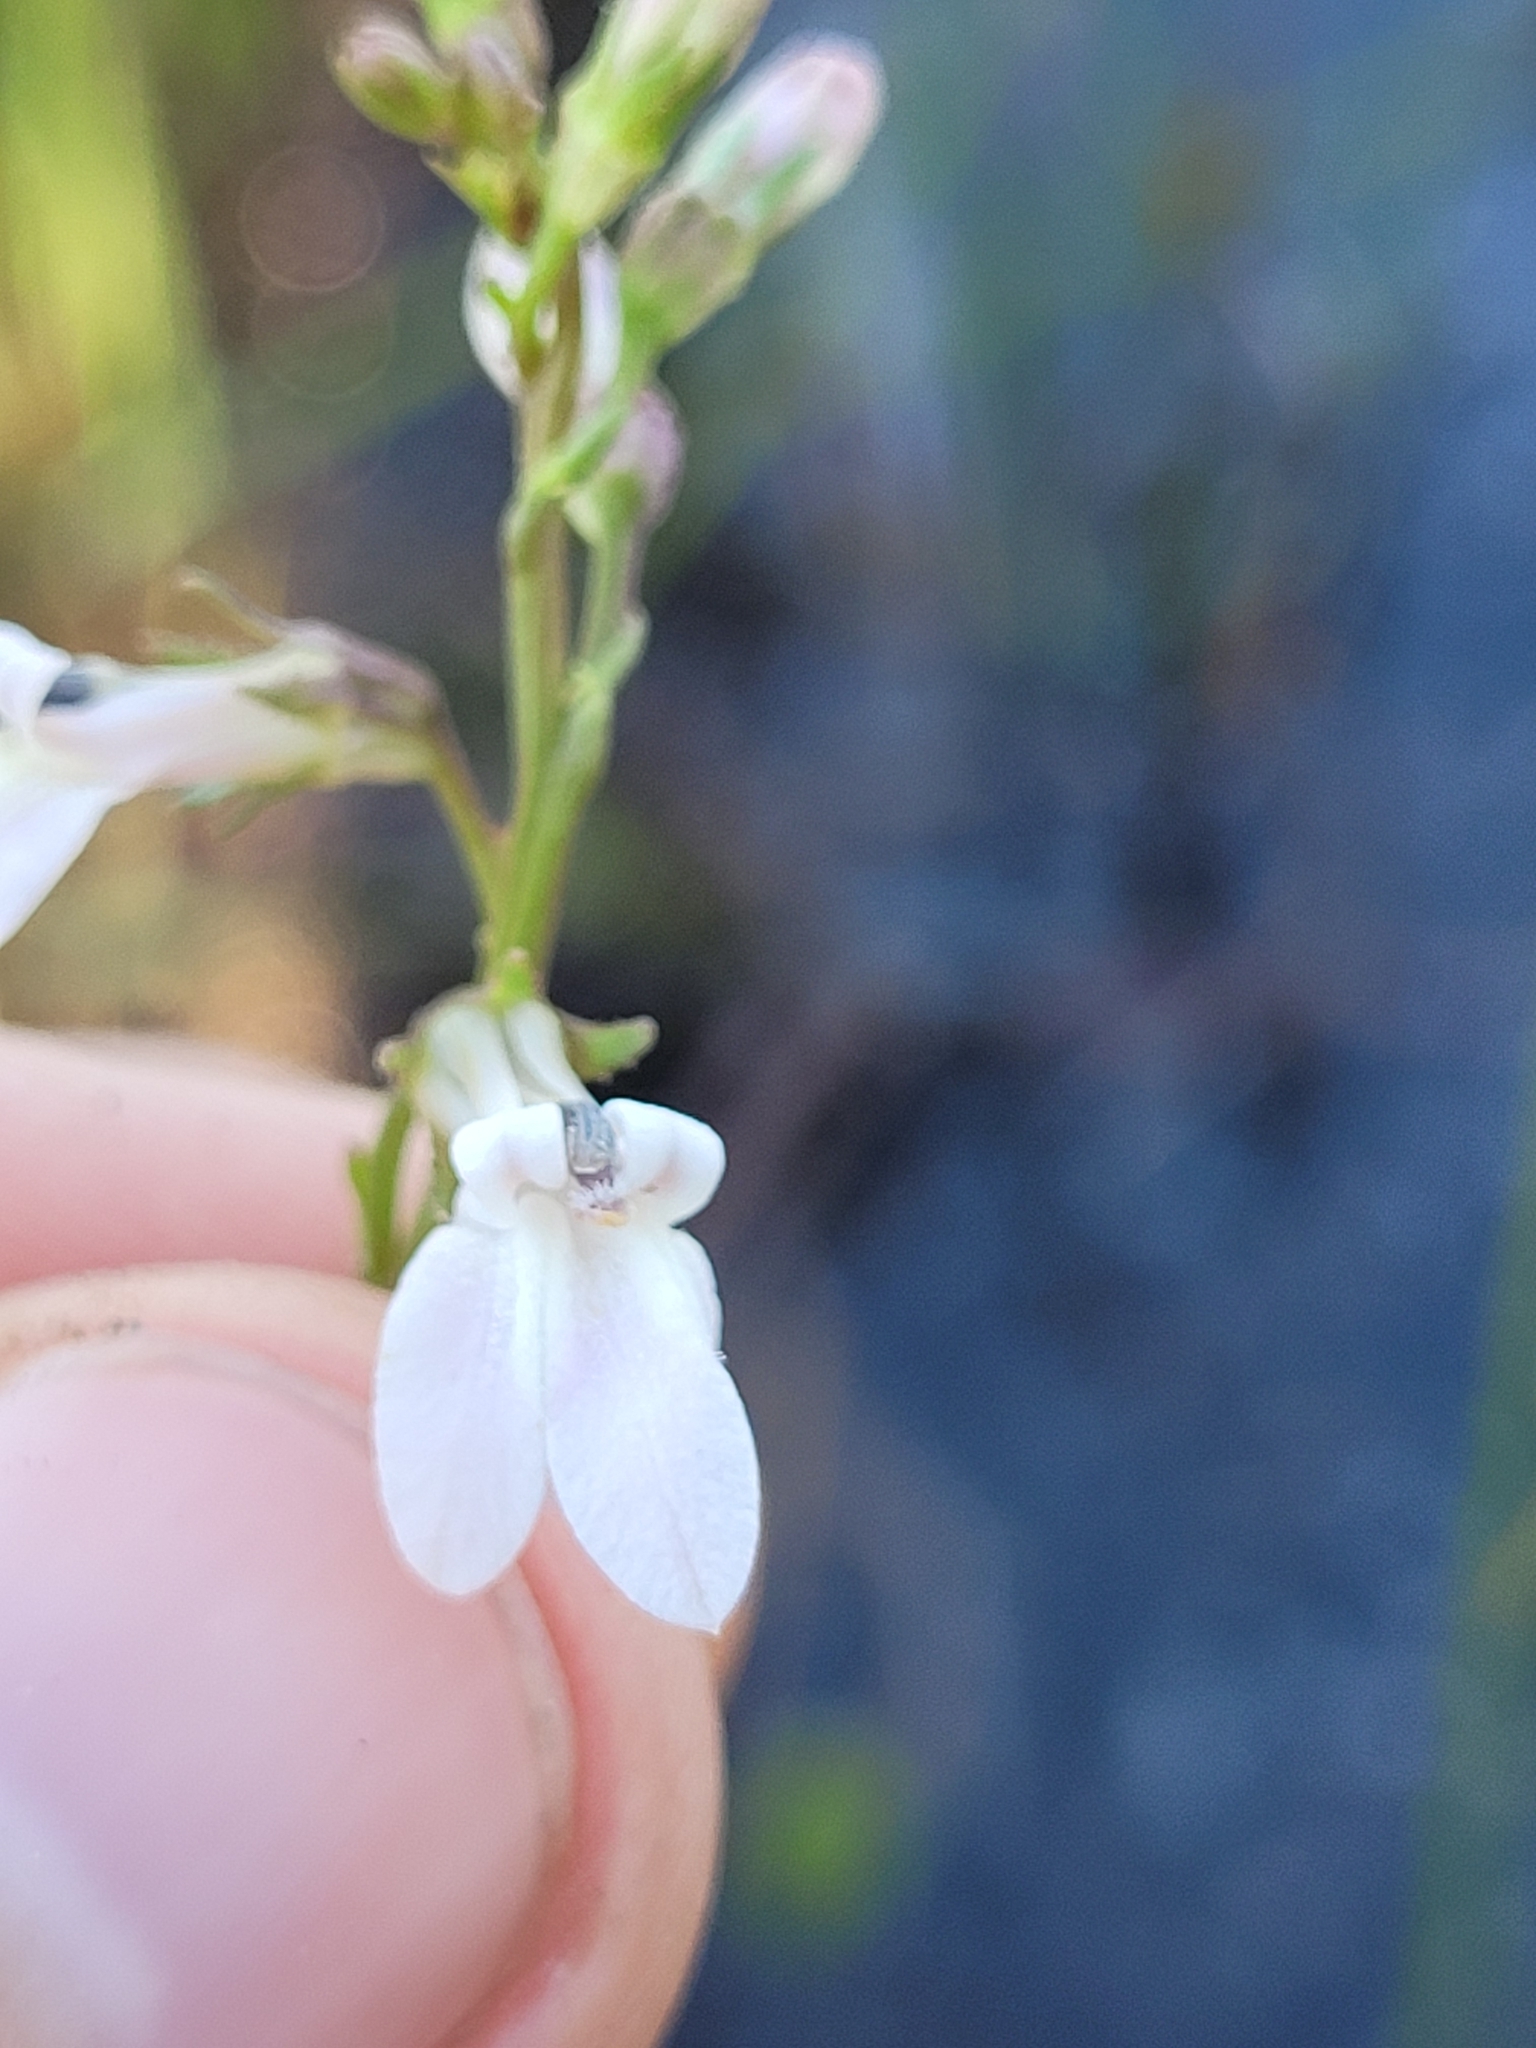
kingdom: Plantae
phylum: Tracheophyta
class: Magnoliopsida
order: Asterales
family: Campanulaceae
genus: Lobelia
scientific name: Lobelia paludosa
